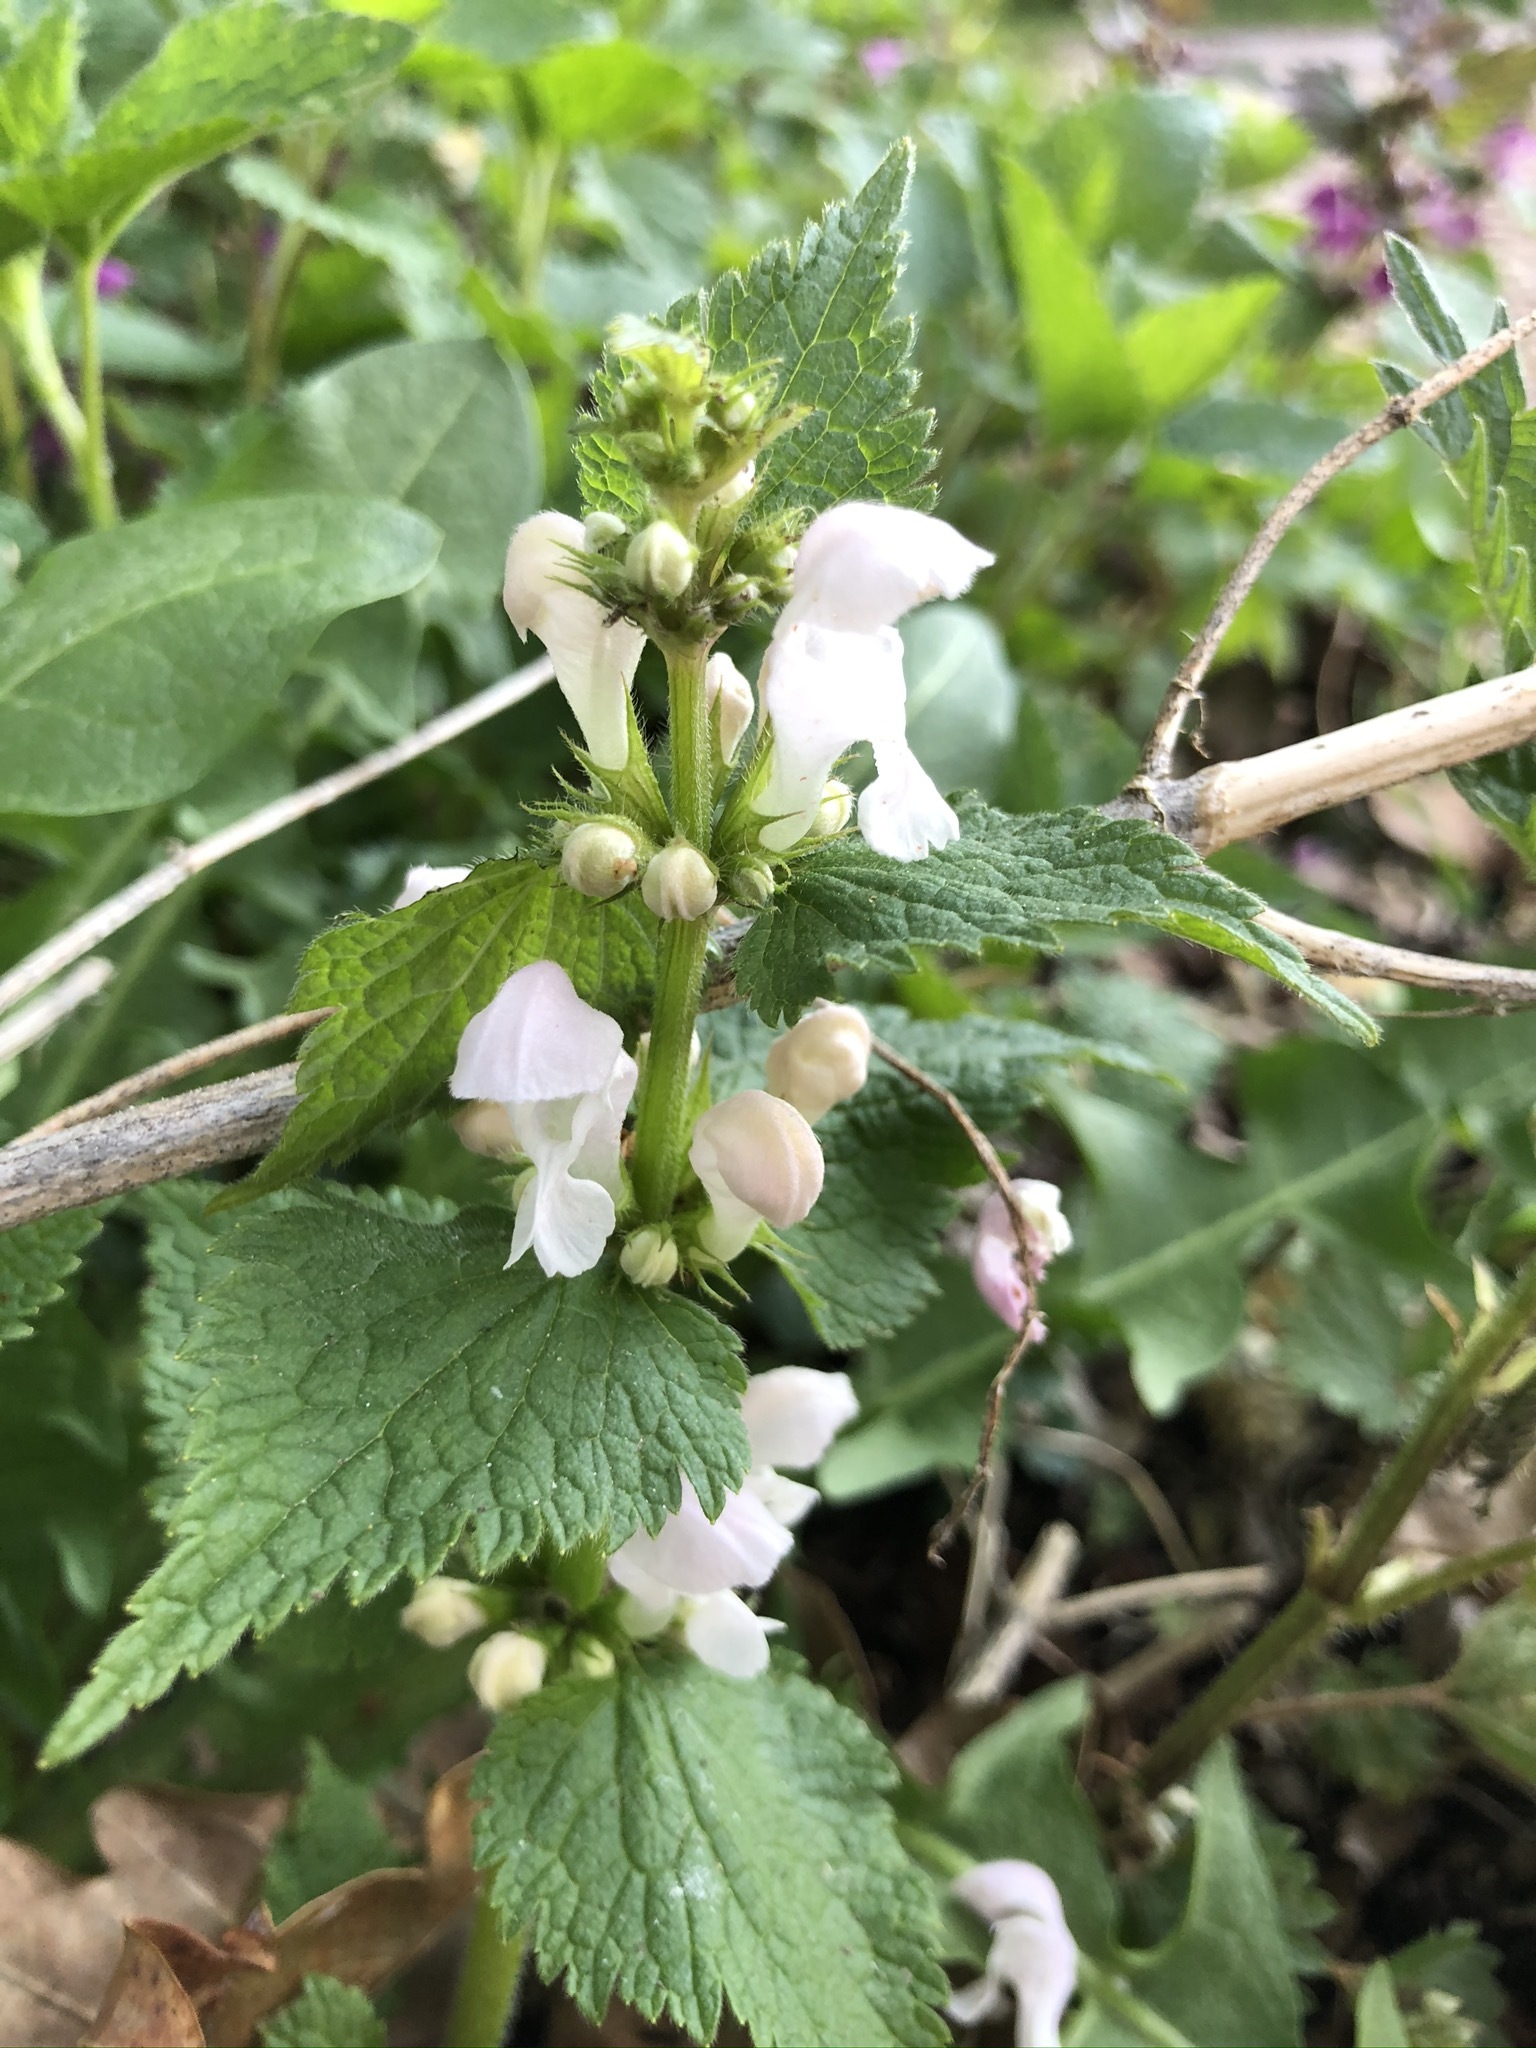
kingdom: Plantae
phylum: Tracheophyta
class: Magnoliopsida
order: Lamiales
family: Lamiaceae
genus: Lamium
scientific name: Lamium maculatum
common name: Spotted dead-nettle
